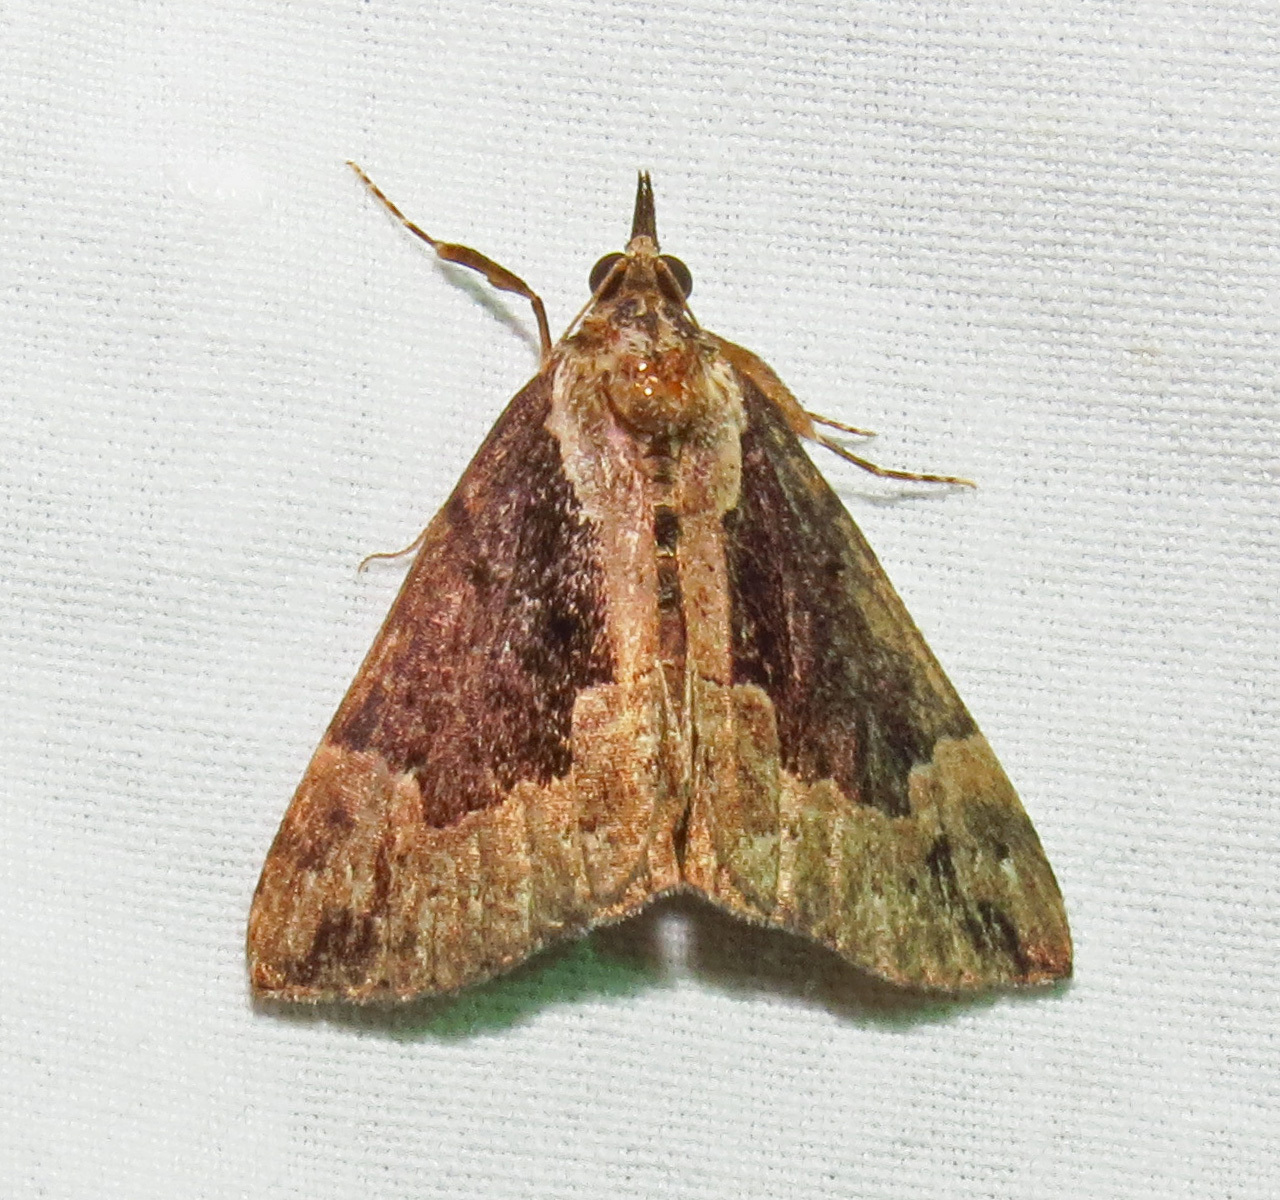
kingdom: Animalia
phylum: Arthropoda
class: Insecta
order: Lepidoptera
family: Erebidae
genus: Hypena
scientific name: Hypena baltimoralis
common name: Baltimore snout
